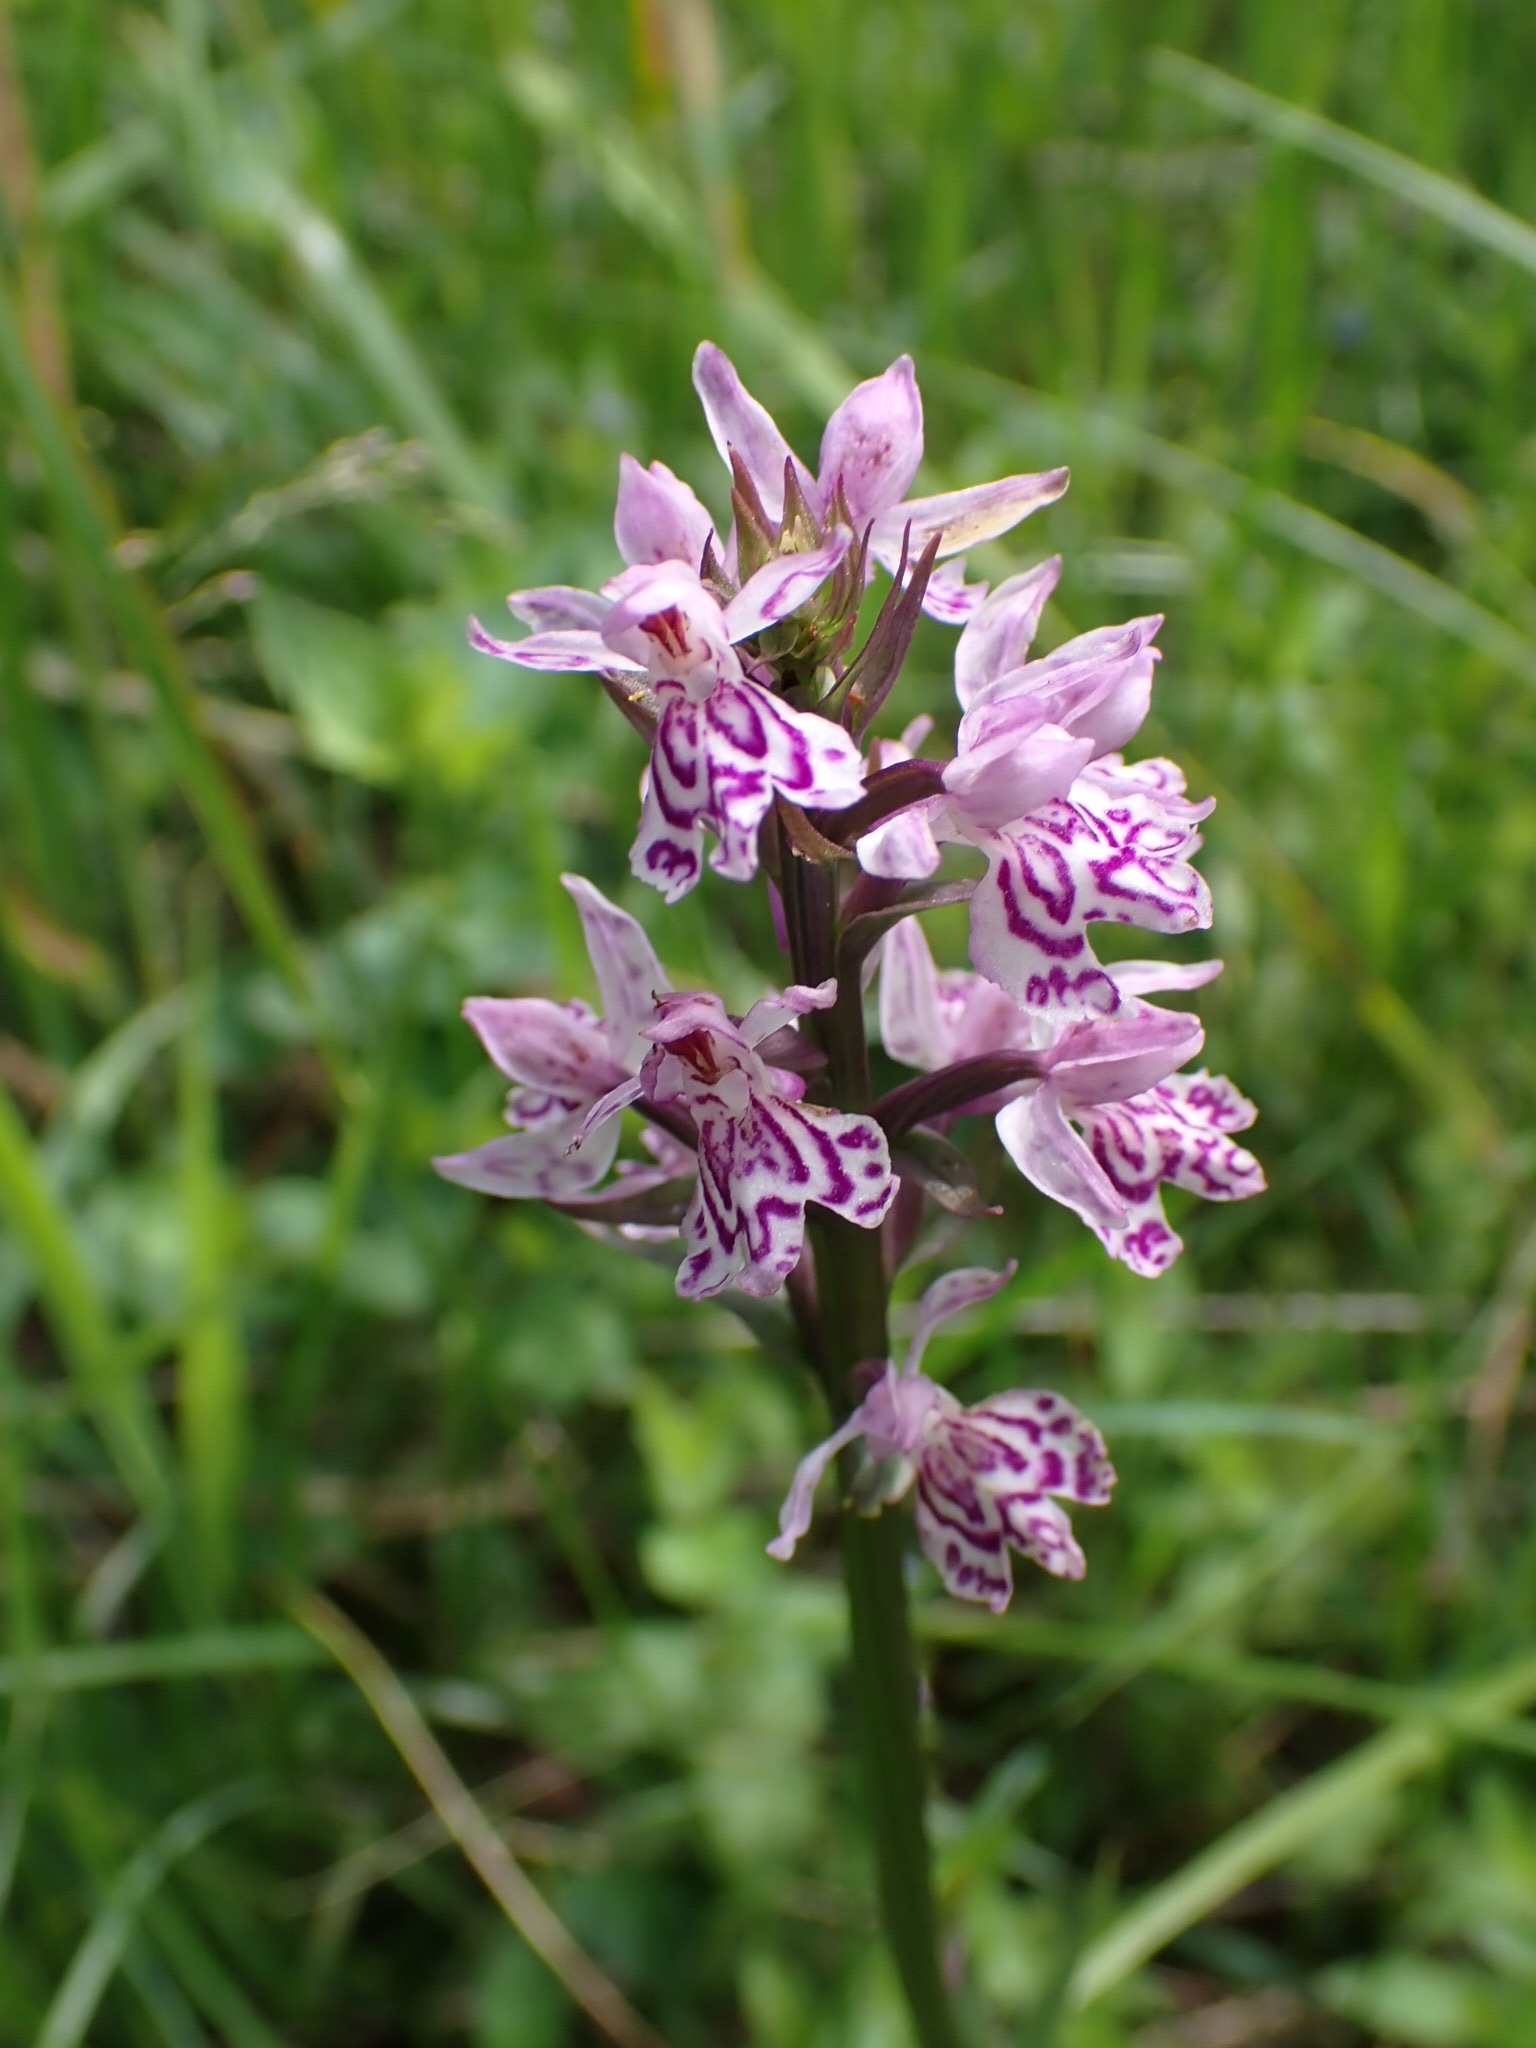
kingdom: Plantae
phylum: Tracheophyta
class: Liliopsida
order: Asparagales
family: Orchidaceae
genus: Dactylorhiza
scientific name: Dactylorhiza maculata
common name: Heath spotted-orchid
